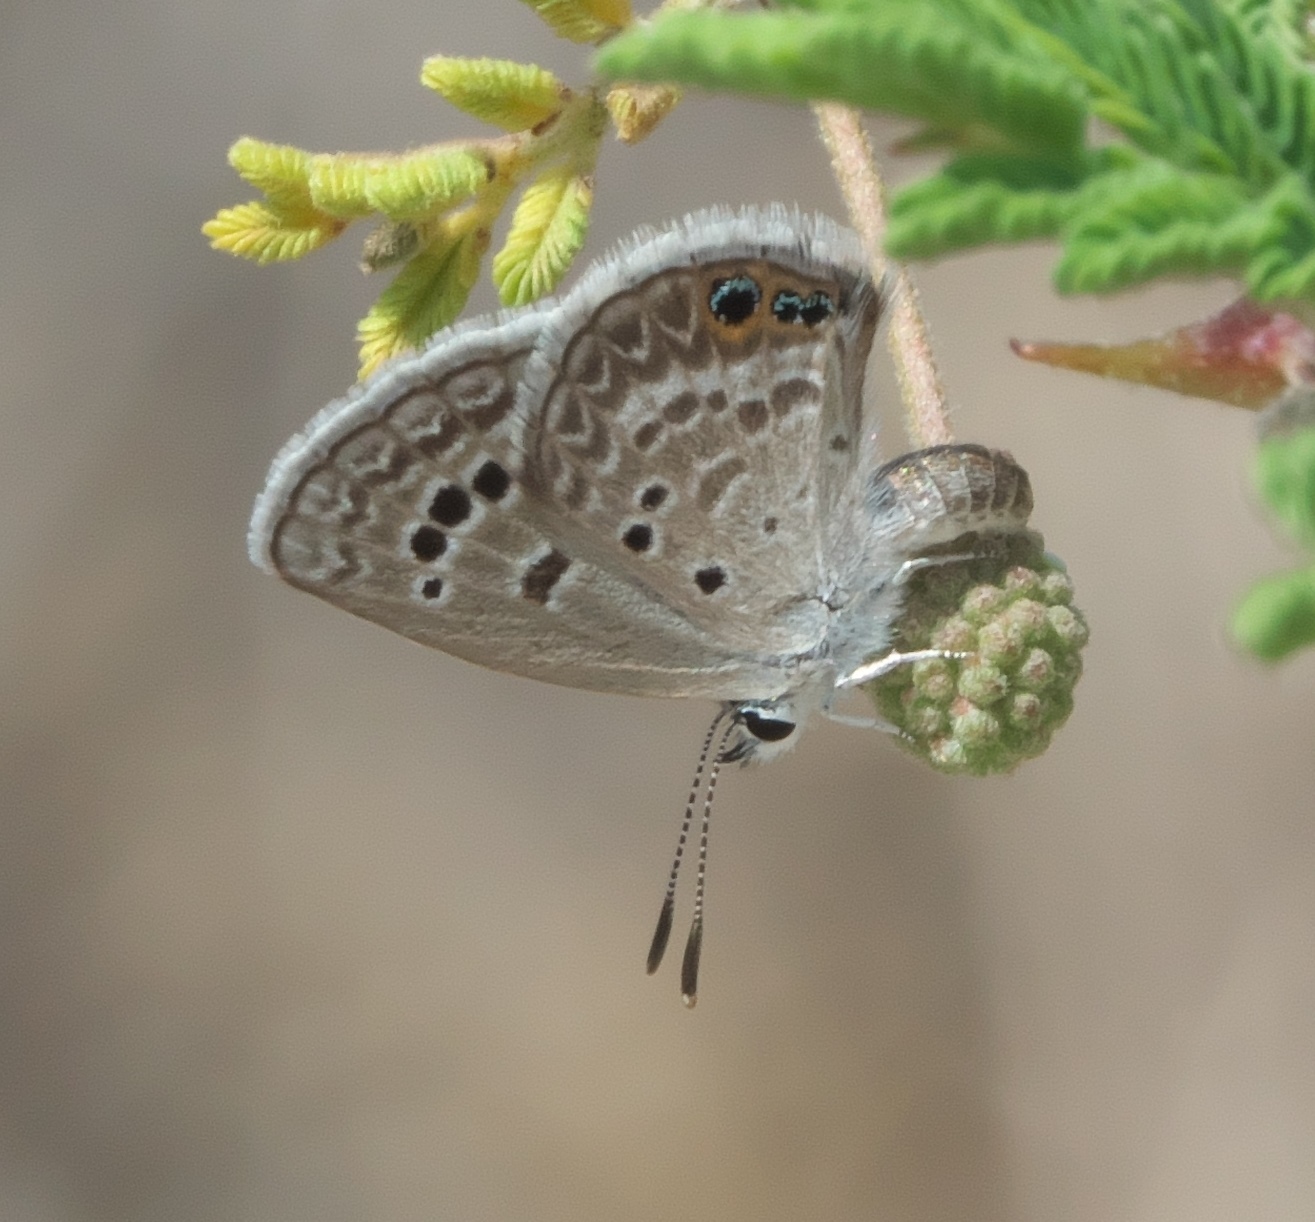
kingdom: Animalia
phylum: Arthropoda
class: Insecta
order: Lepidoptera
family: Lycaenidae
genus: Echinargus
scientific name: Echinargus isola
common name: Reakirt's blue
